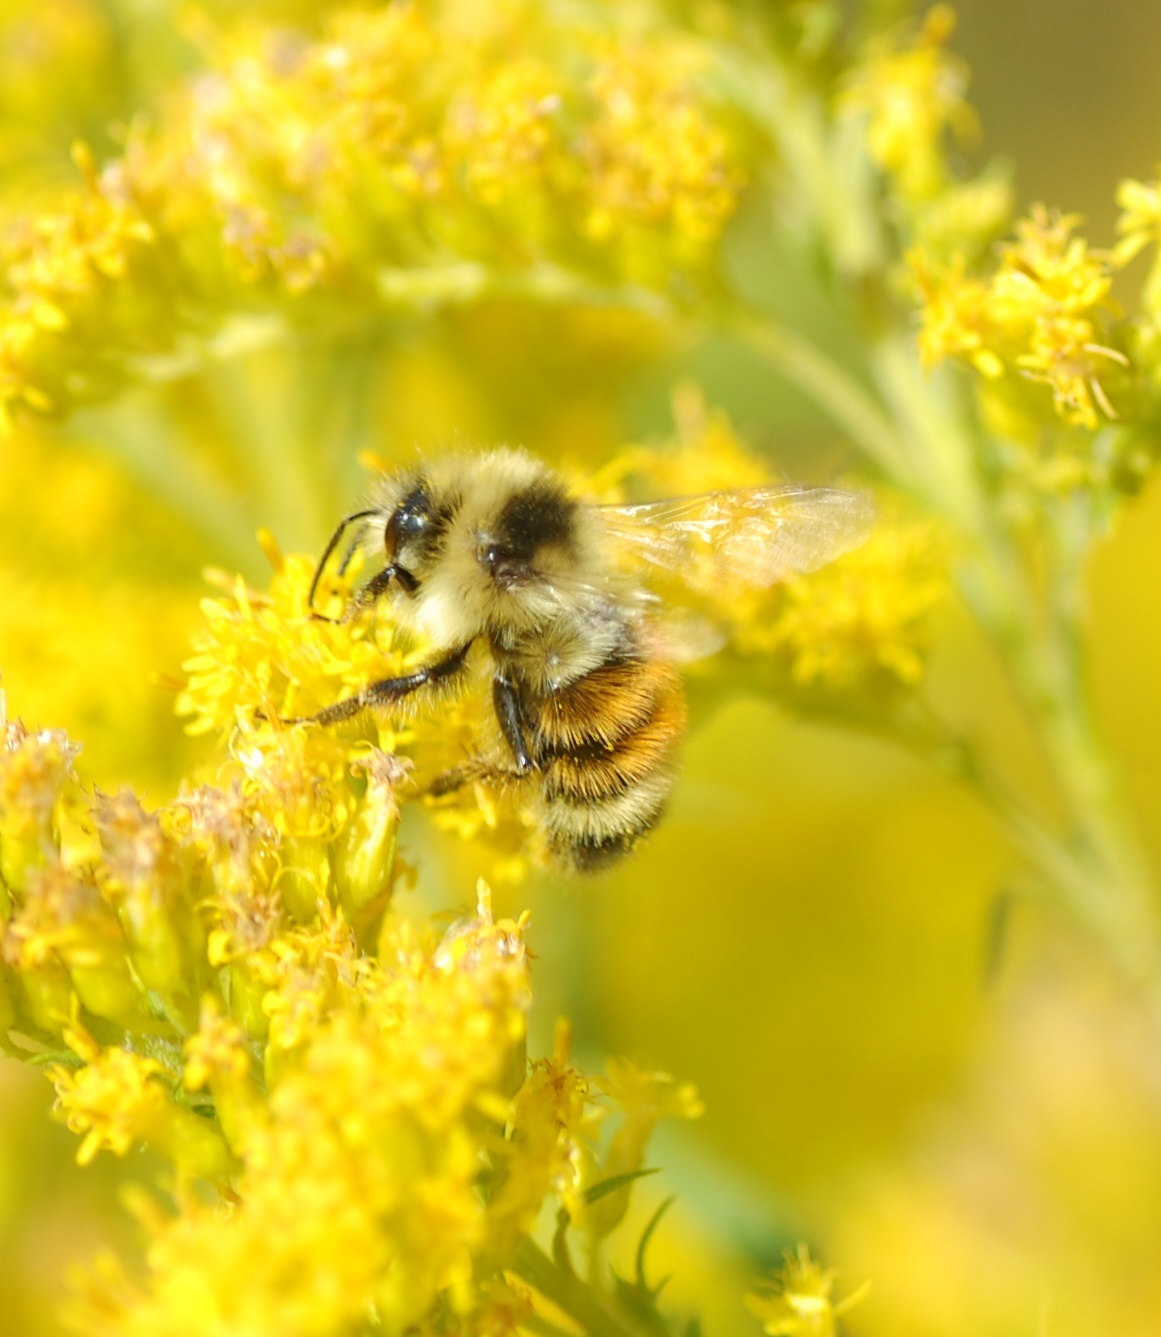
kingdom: Animalia
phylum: Arthropoda
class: Insecta
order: Hymenoptera
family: Apidae
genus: Bombus
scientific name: Bombus ternarius
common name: Tri-colored bumble bee
